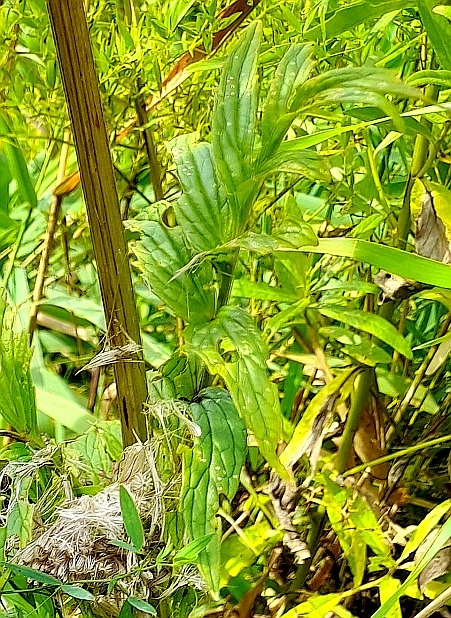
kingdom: Plantae
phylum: Tracheophyta
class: Magnoliopsida
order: Dipsacales
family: Caprifoliaceae
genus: Valeriana
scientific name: Valeriana officinalis
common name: Common valerian
